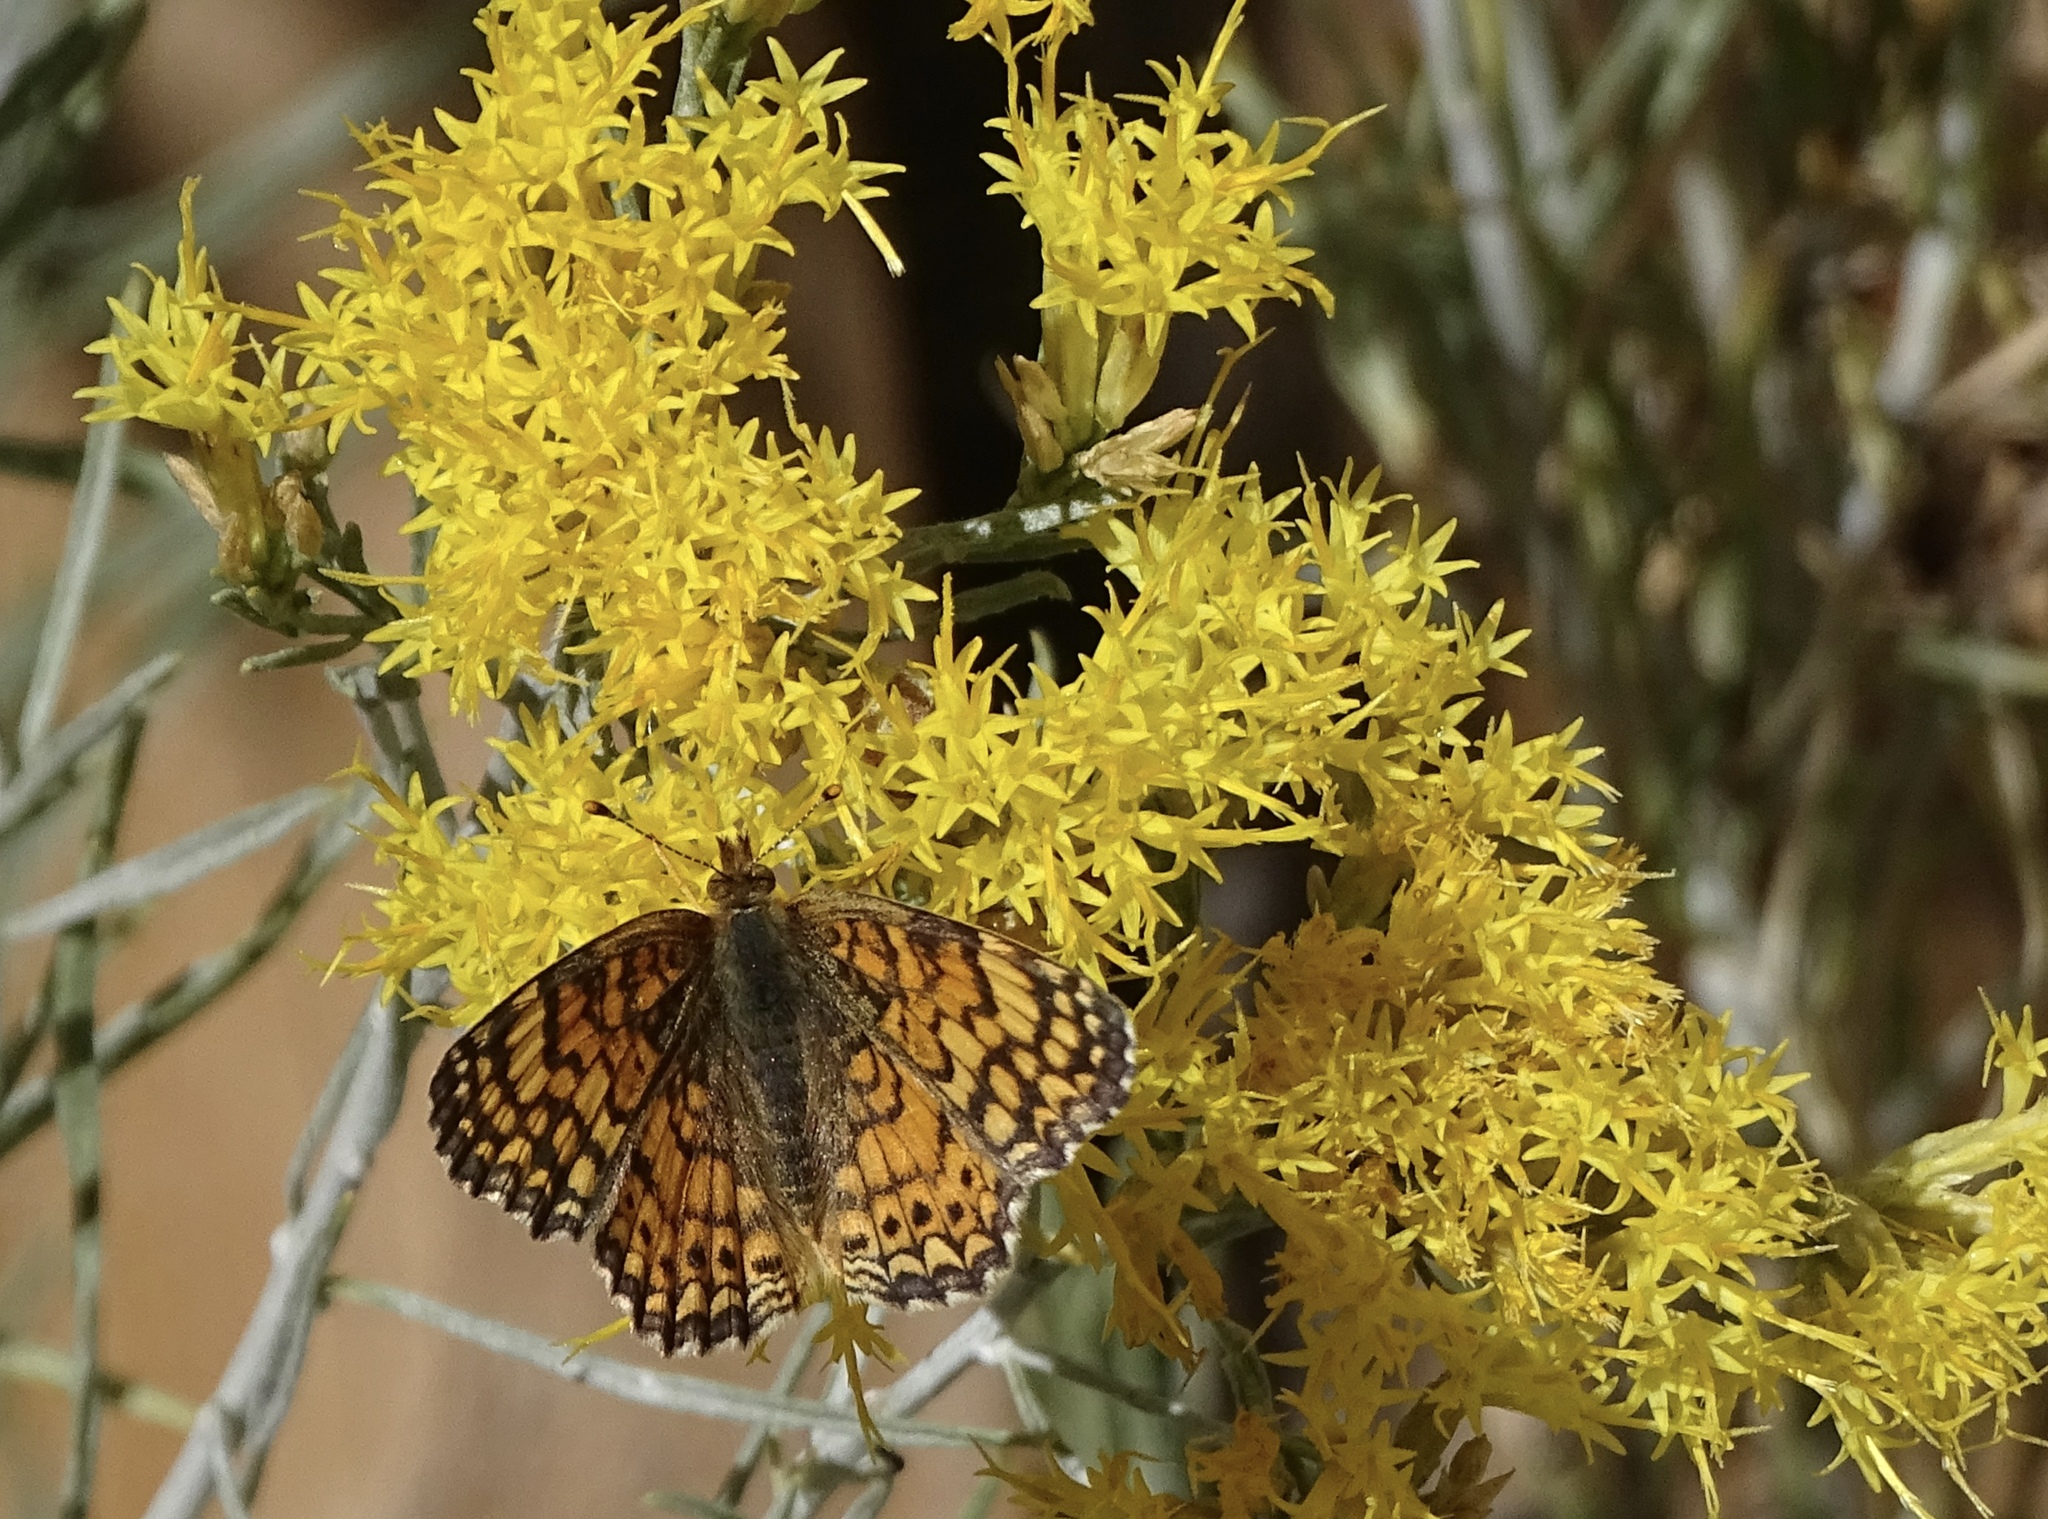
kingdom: Animalia
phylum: Arthropoda
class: Insecta
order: Lepidoptera
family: Nymphalidae
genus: Eresia
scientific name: Eresia aveyrona
